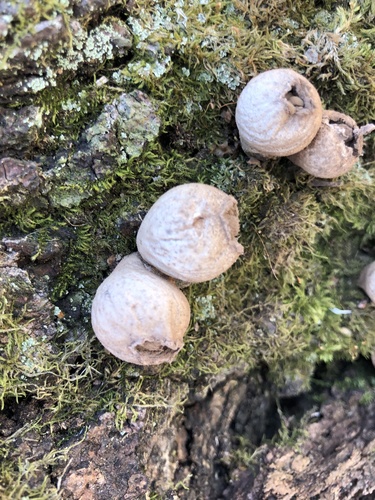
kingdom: Fungi
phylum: Basidiomycota
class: Agaricomycetes
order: Agaricales
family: Lycoperdaceae
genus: Apioperdon
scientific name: Apioperdon pyriforme
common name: Pear-shaped puffball
